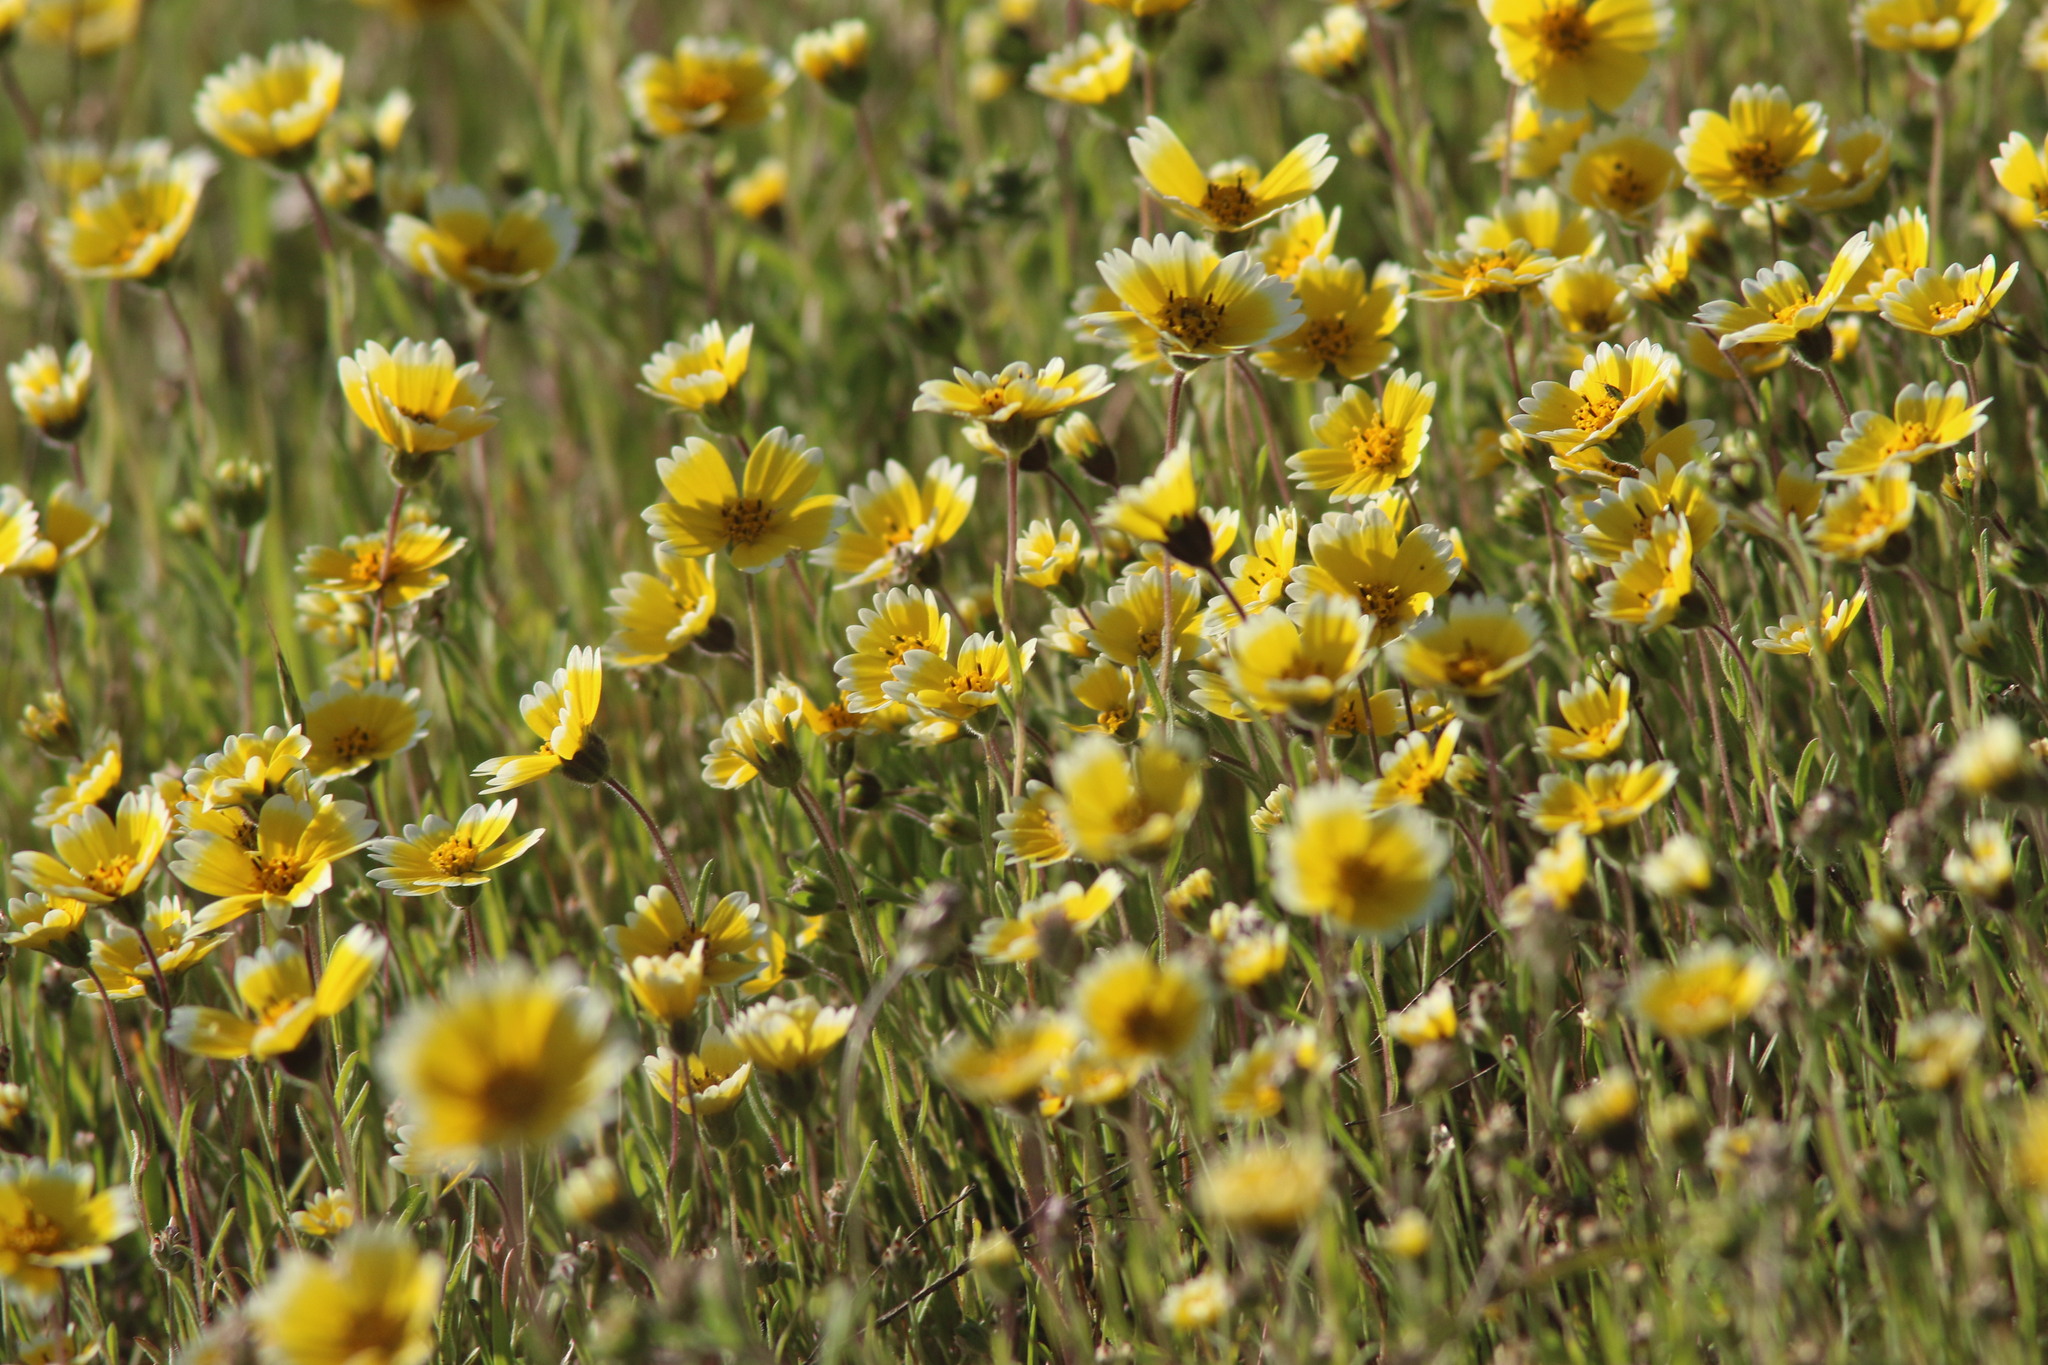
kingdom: Plantae
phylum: Tracheophyta
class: Magnoliopsida
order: Asterales
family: Asteraceae
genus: Layia
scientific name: Layia platyglossa
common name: Tidy-tips
